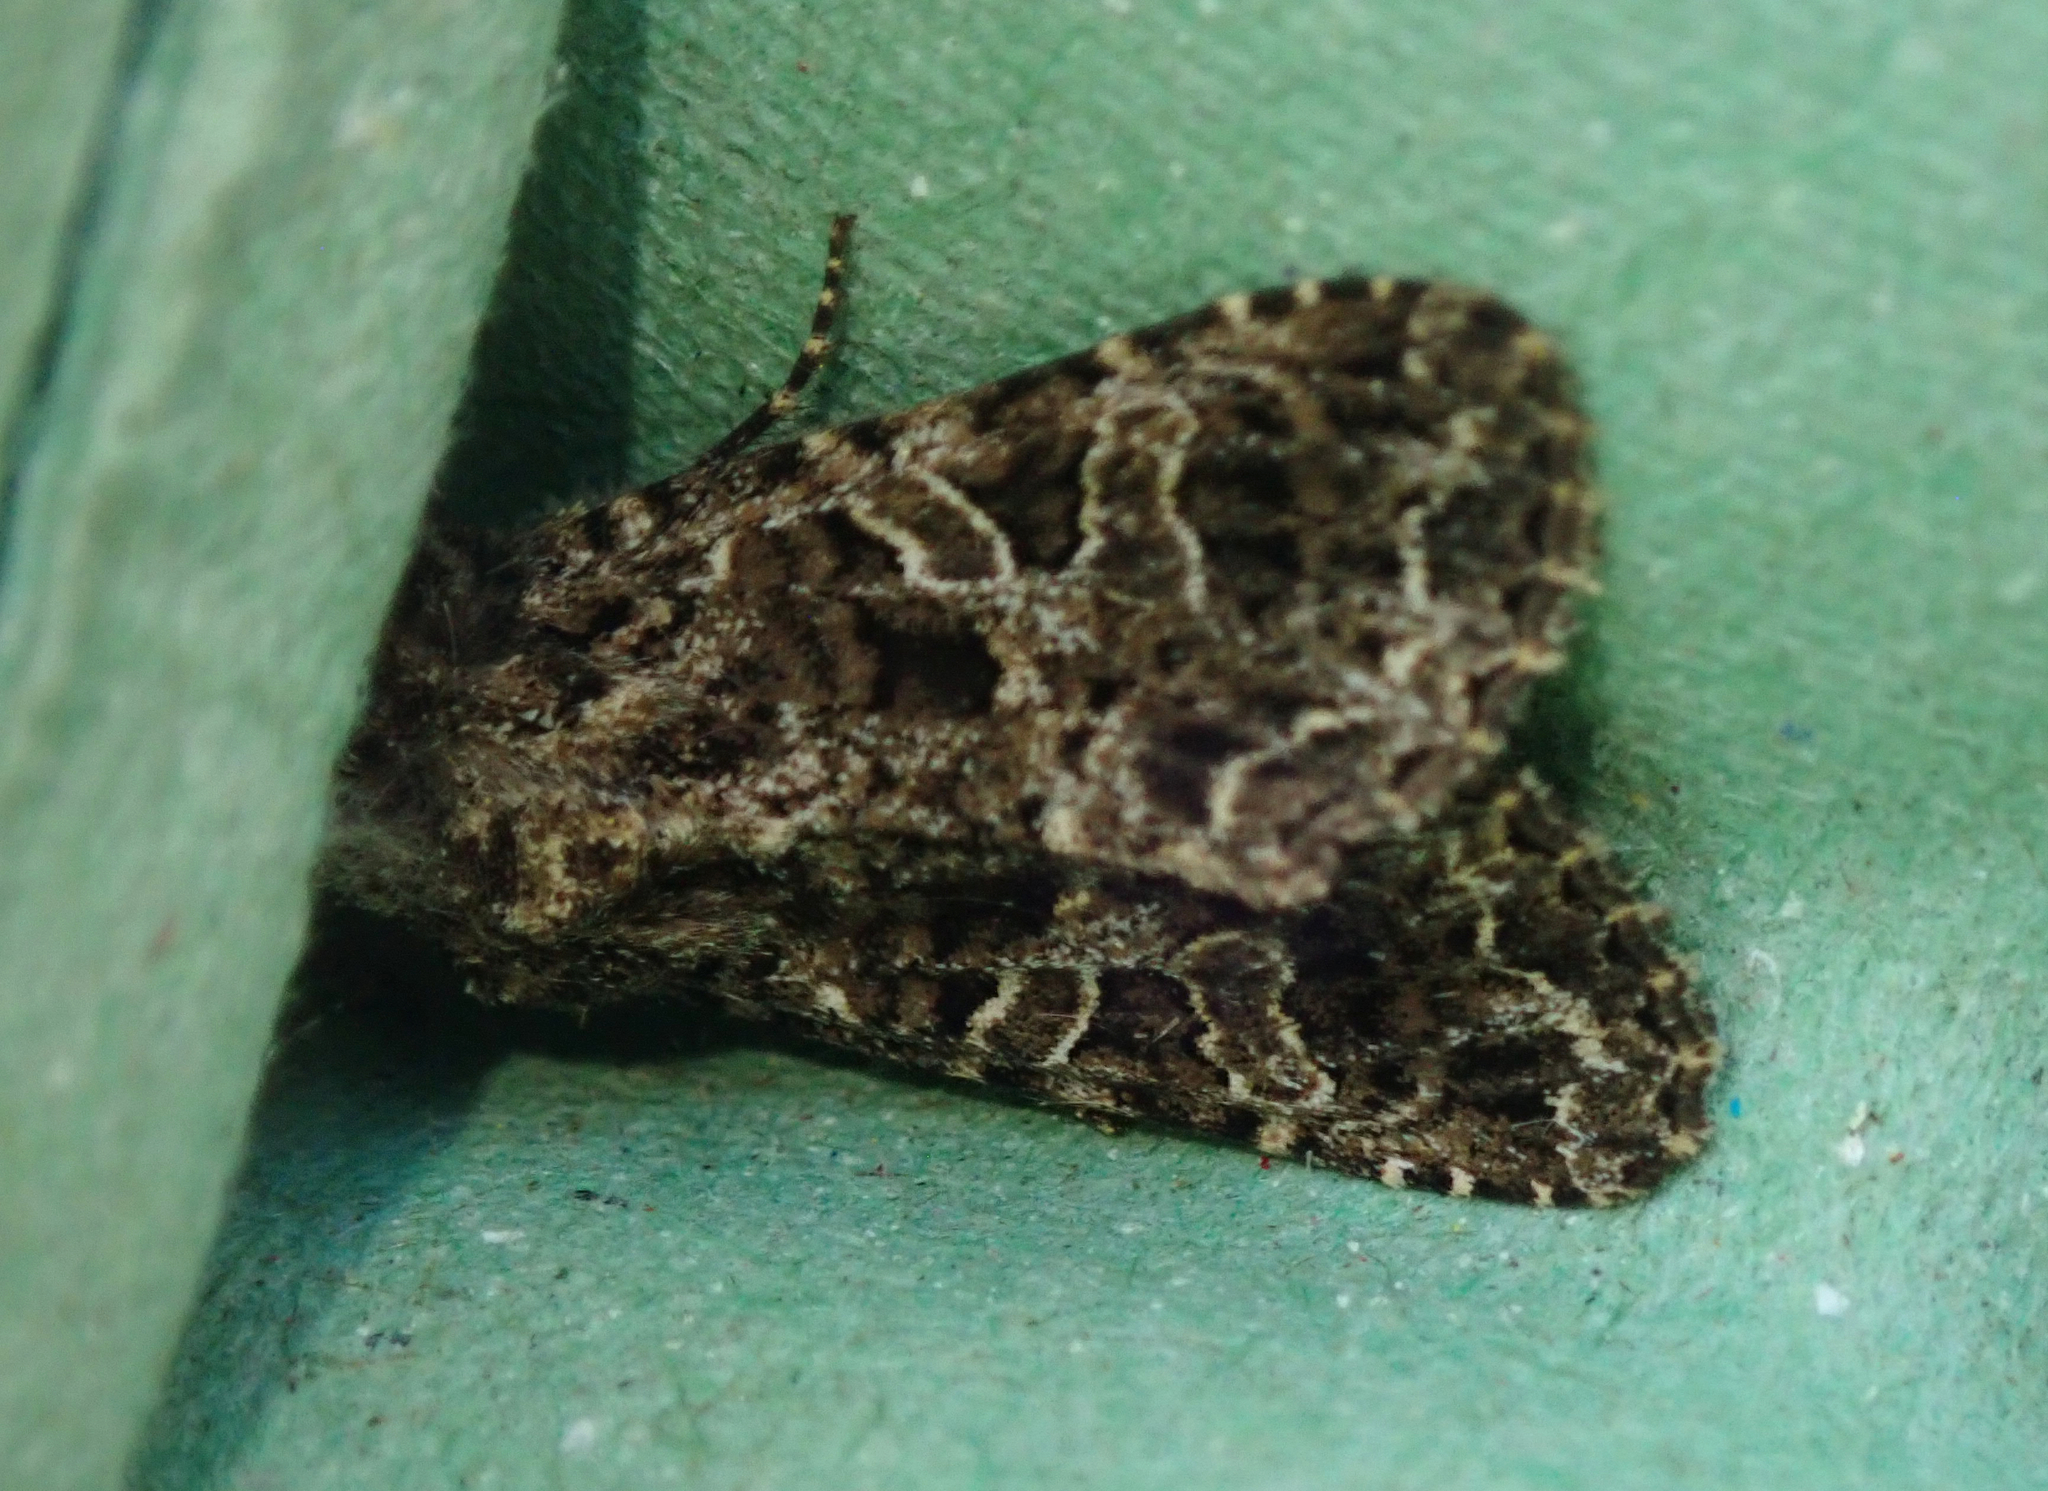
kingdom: Animalia
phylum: Arthropoda
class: Insecta
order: Lepidoptera
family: Noctuidae
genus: Hadena
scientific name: Hadena bicruris
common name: Lychnis
